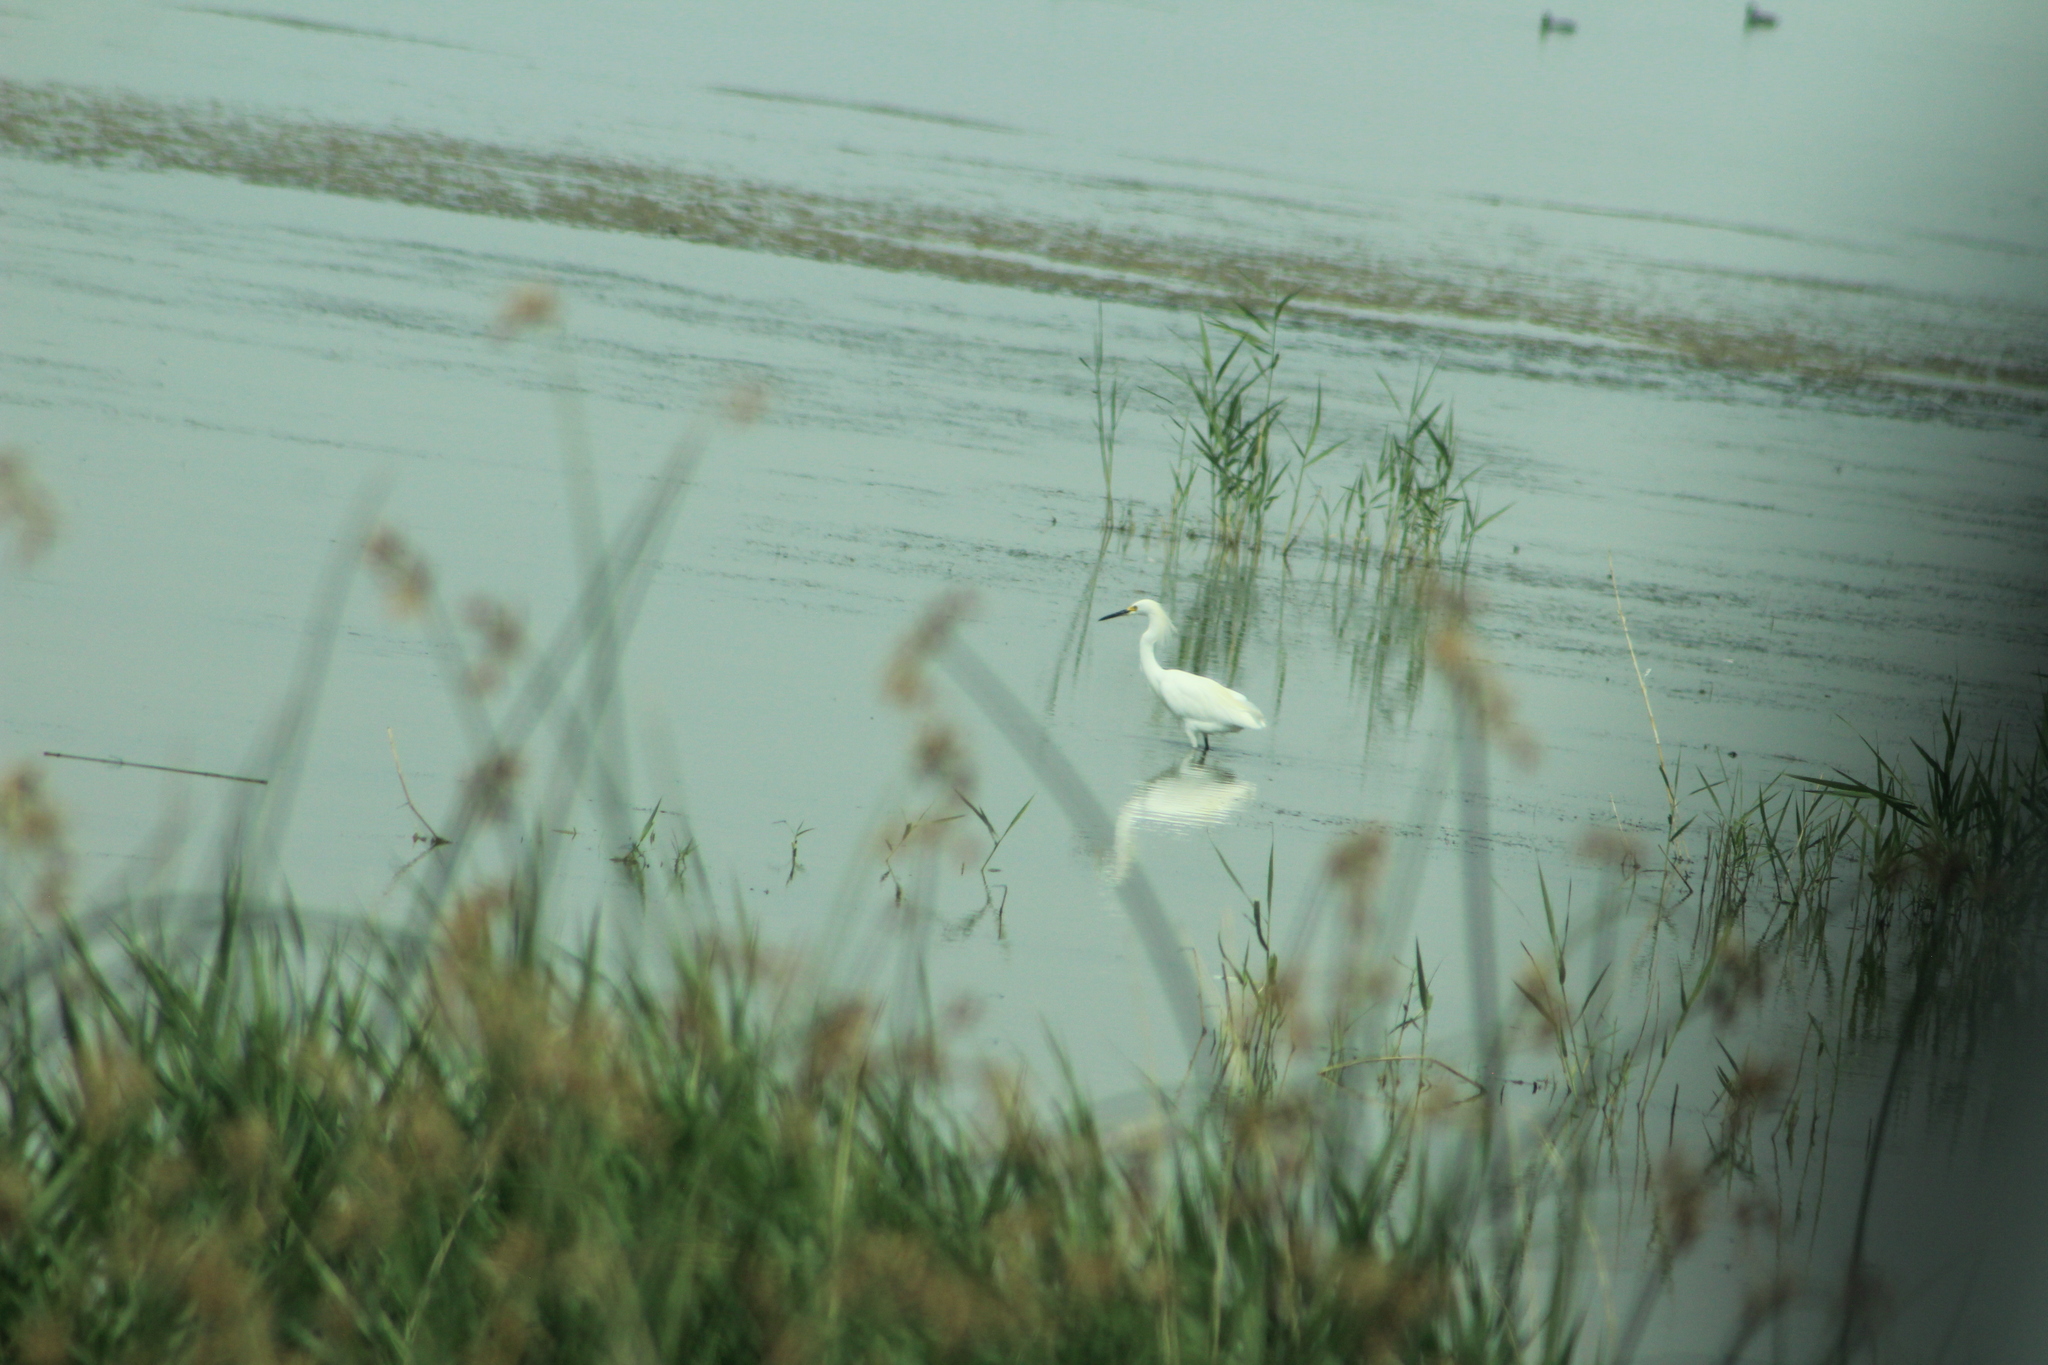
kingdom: Animalia
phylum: Chordata
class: Aves
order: Pelecaniformes
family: Ardeidae
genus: Egretta
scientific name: Egretta thula
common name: Snowy egret
